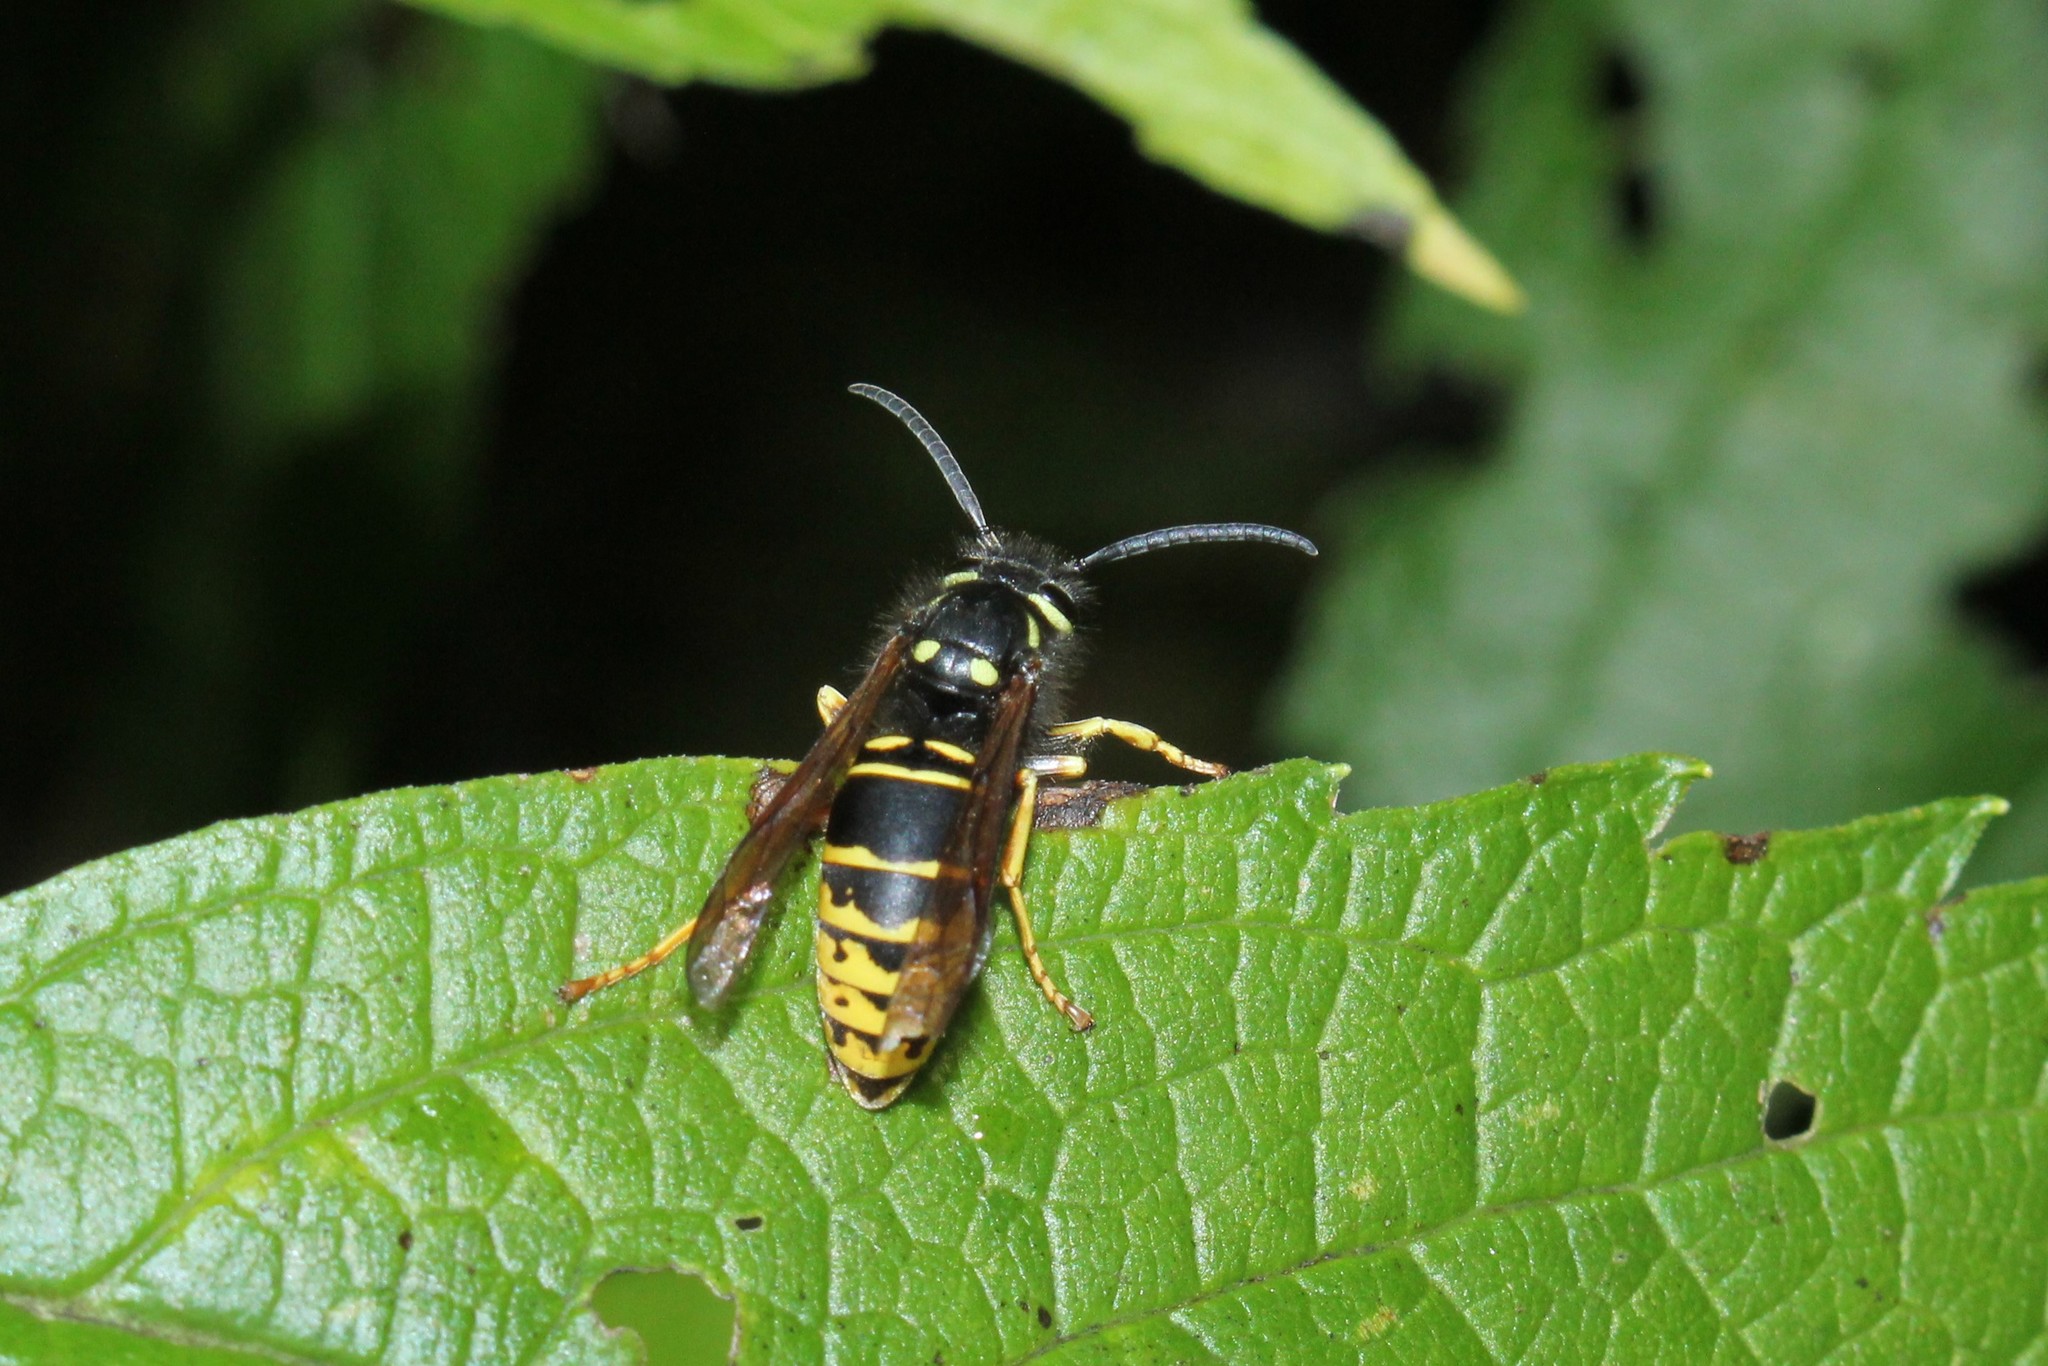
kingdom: Animalia
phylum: Arthropoda
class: Insecta
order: Hymenoptera
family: Vespidae
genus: Vespula
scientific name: Vespula vidua
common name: Widow yellowjacket
